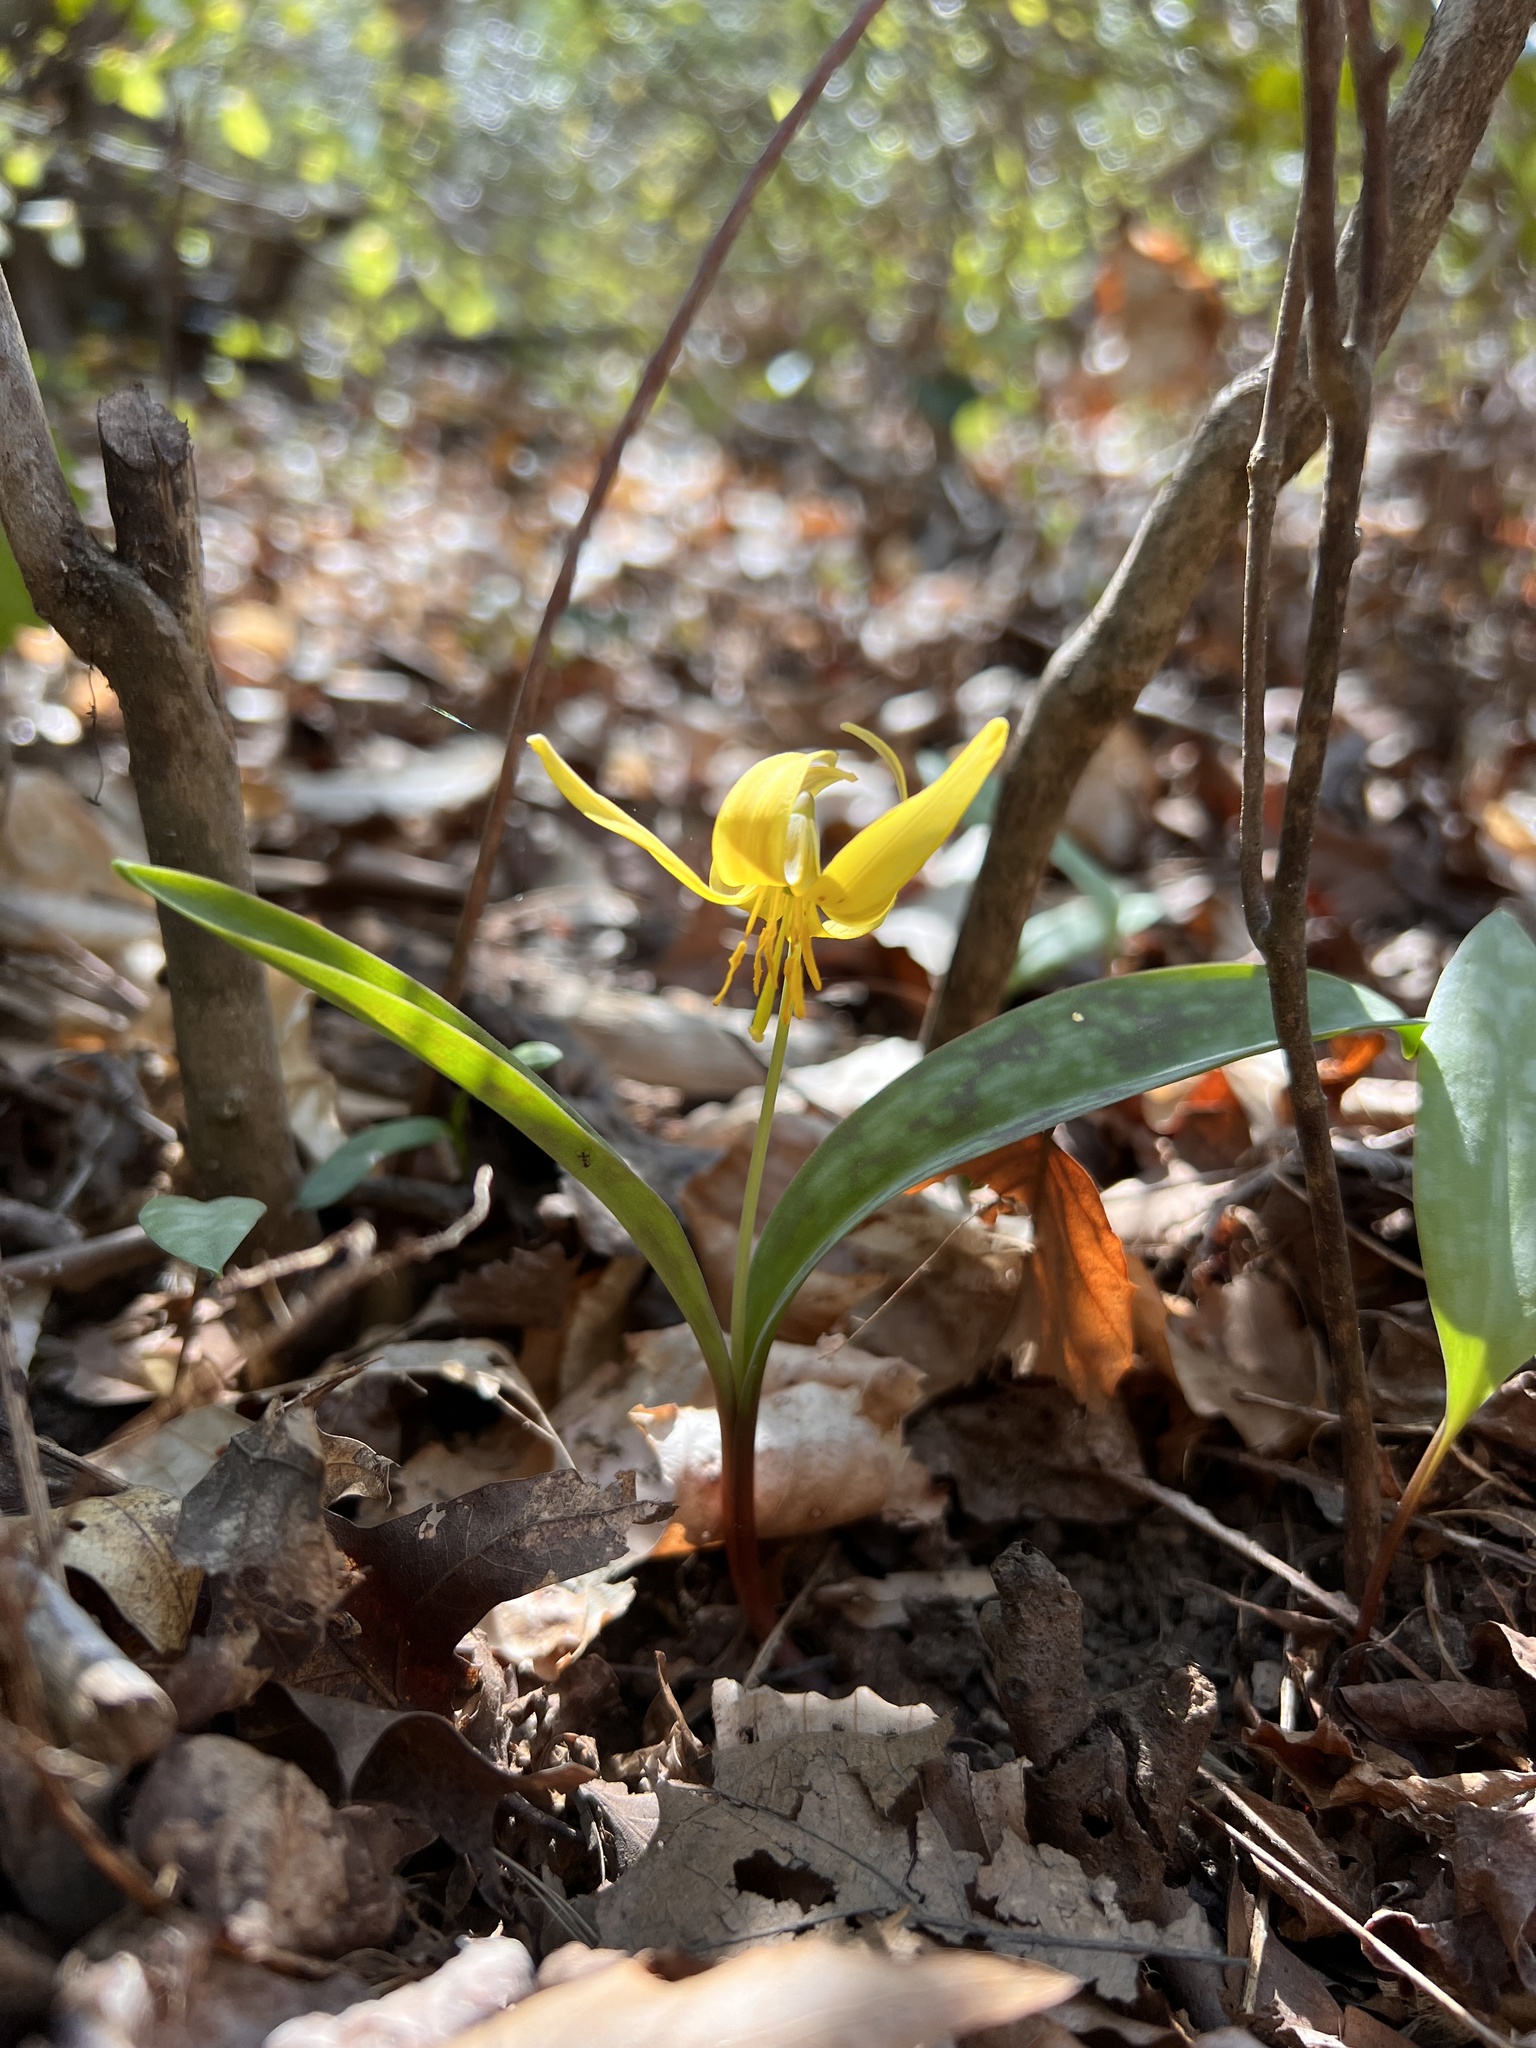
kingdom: Plantae
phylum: Tracheophyta
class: Liliopsida
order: Liliales
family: Liliaceae
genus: Erythronium
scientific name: Erythronium americanum
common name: Yellow adder's-tongue
